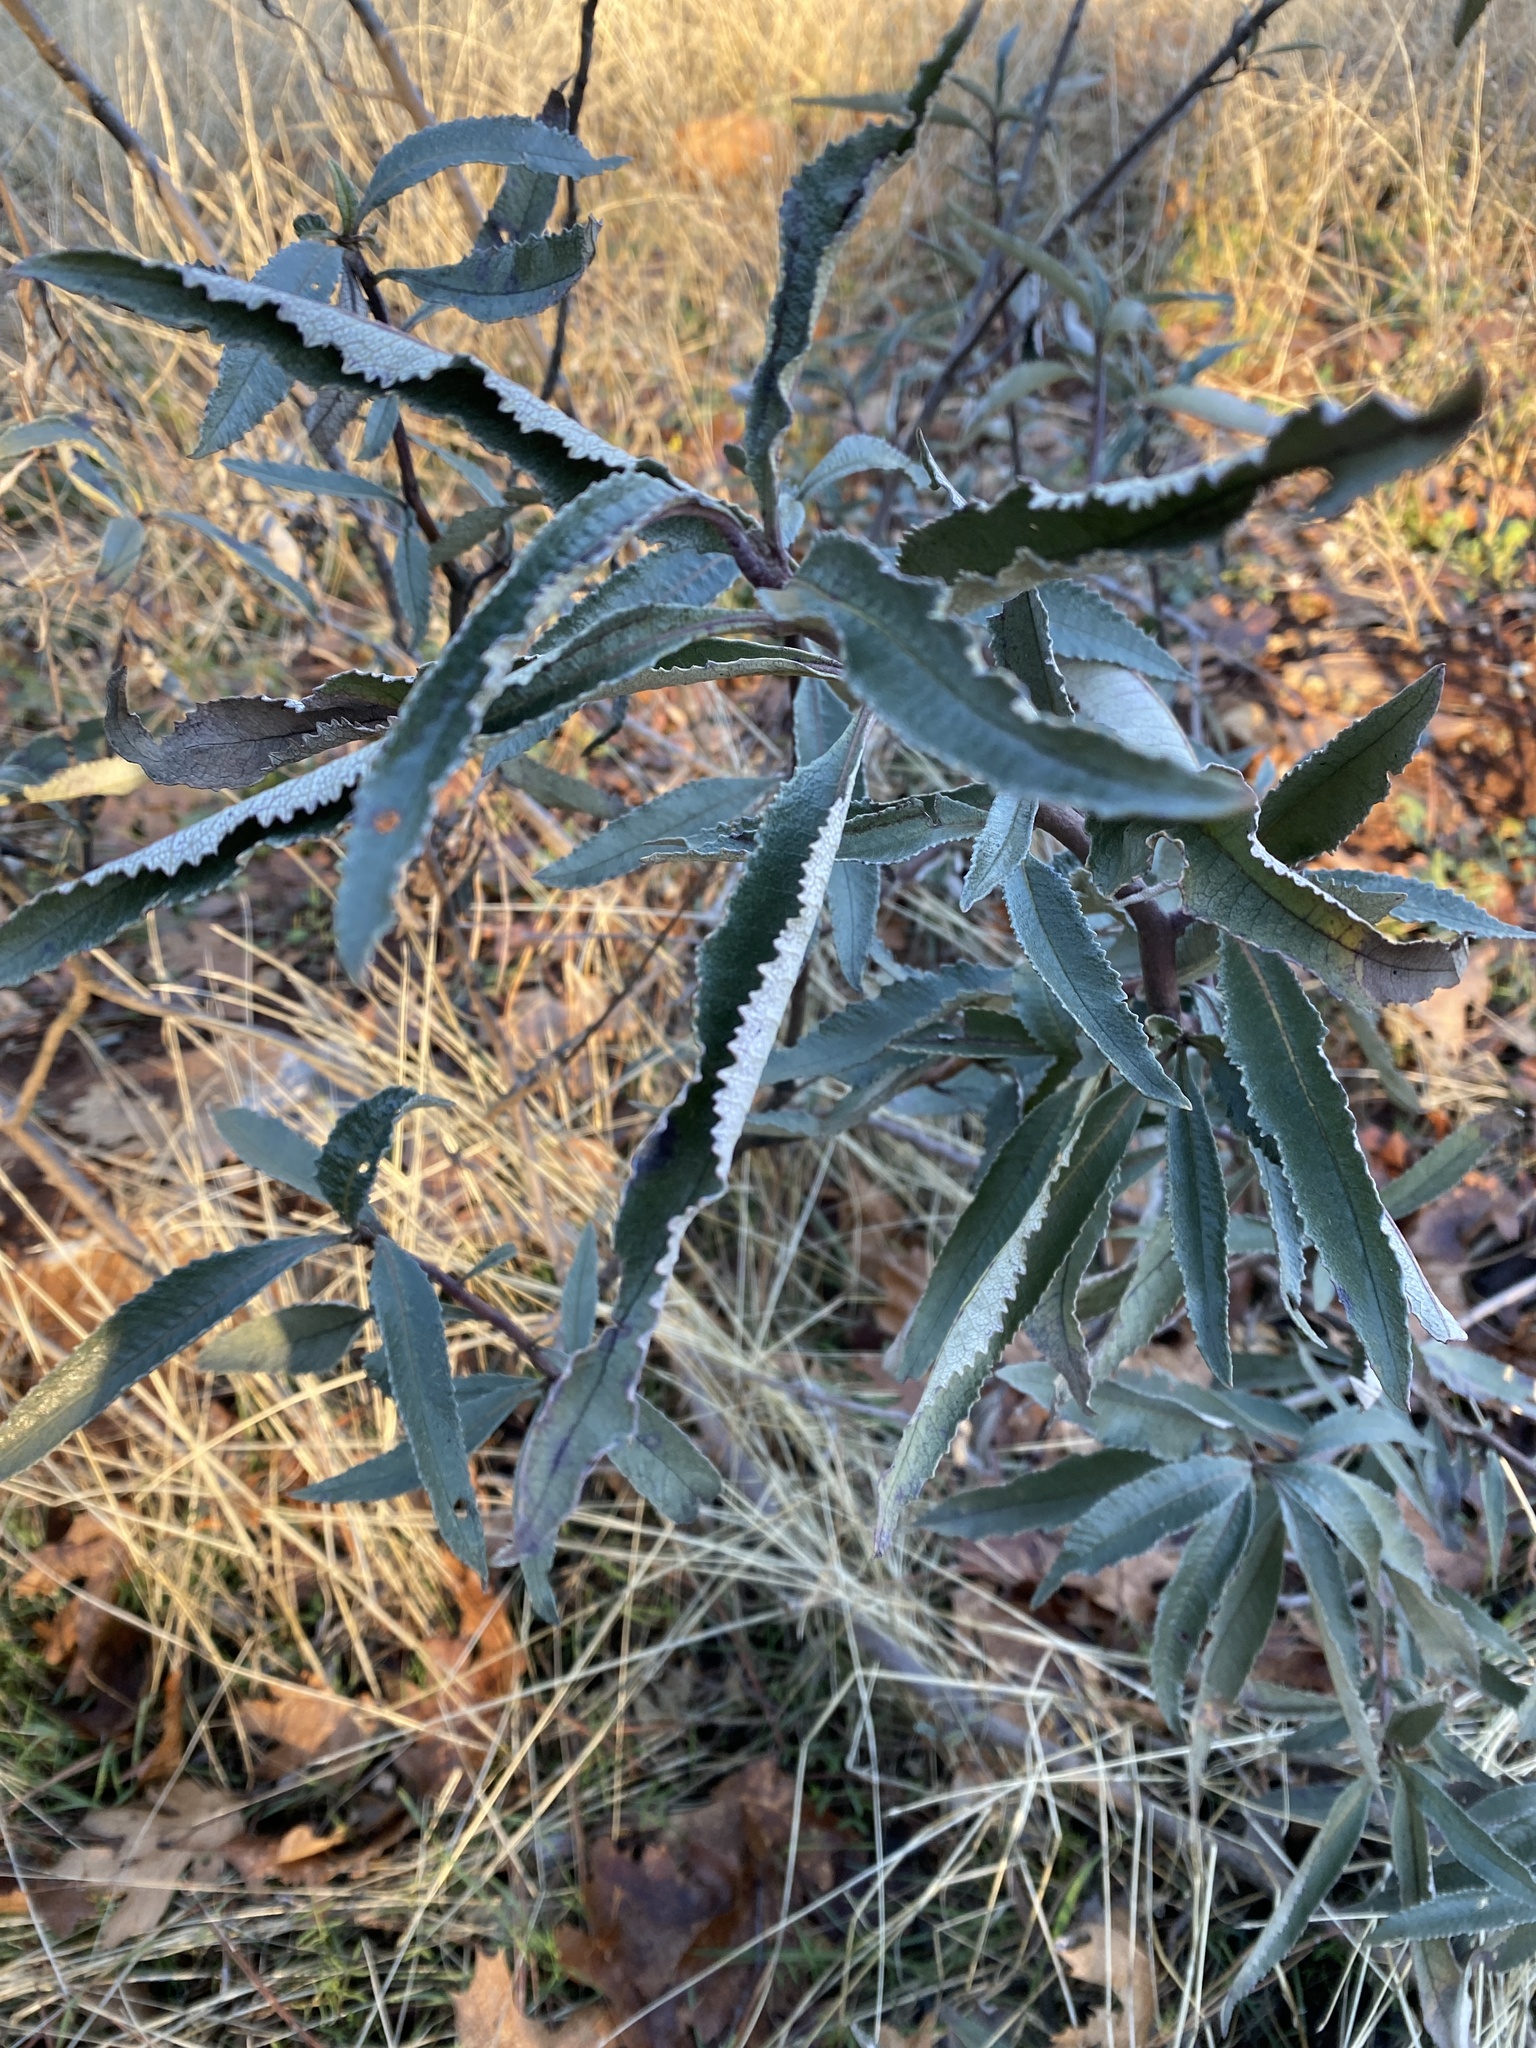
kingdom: Plantae
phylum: Tracheophyta
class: Magnoliopsida
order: Boraginales
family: Namaceae
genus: Eriodictyon
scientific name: Eriodictyon californicum
